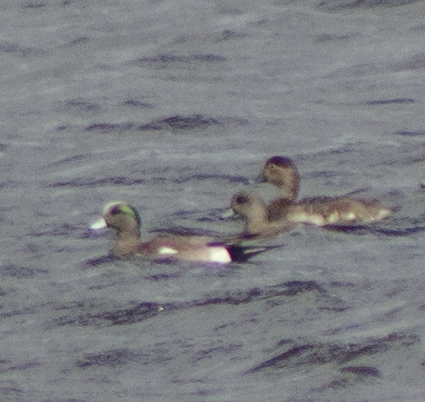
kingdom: Animalia
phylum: Chordata
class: Aves
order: Anseriformes
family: Anatidae
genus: Mareca
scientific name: Mareca americana
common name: American wigeon
